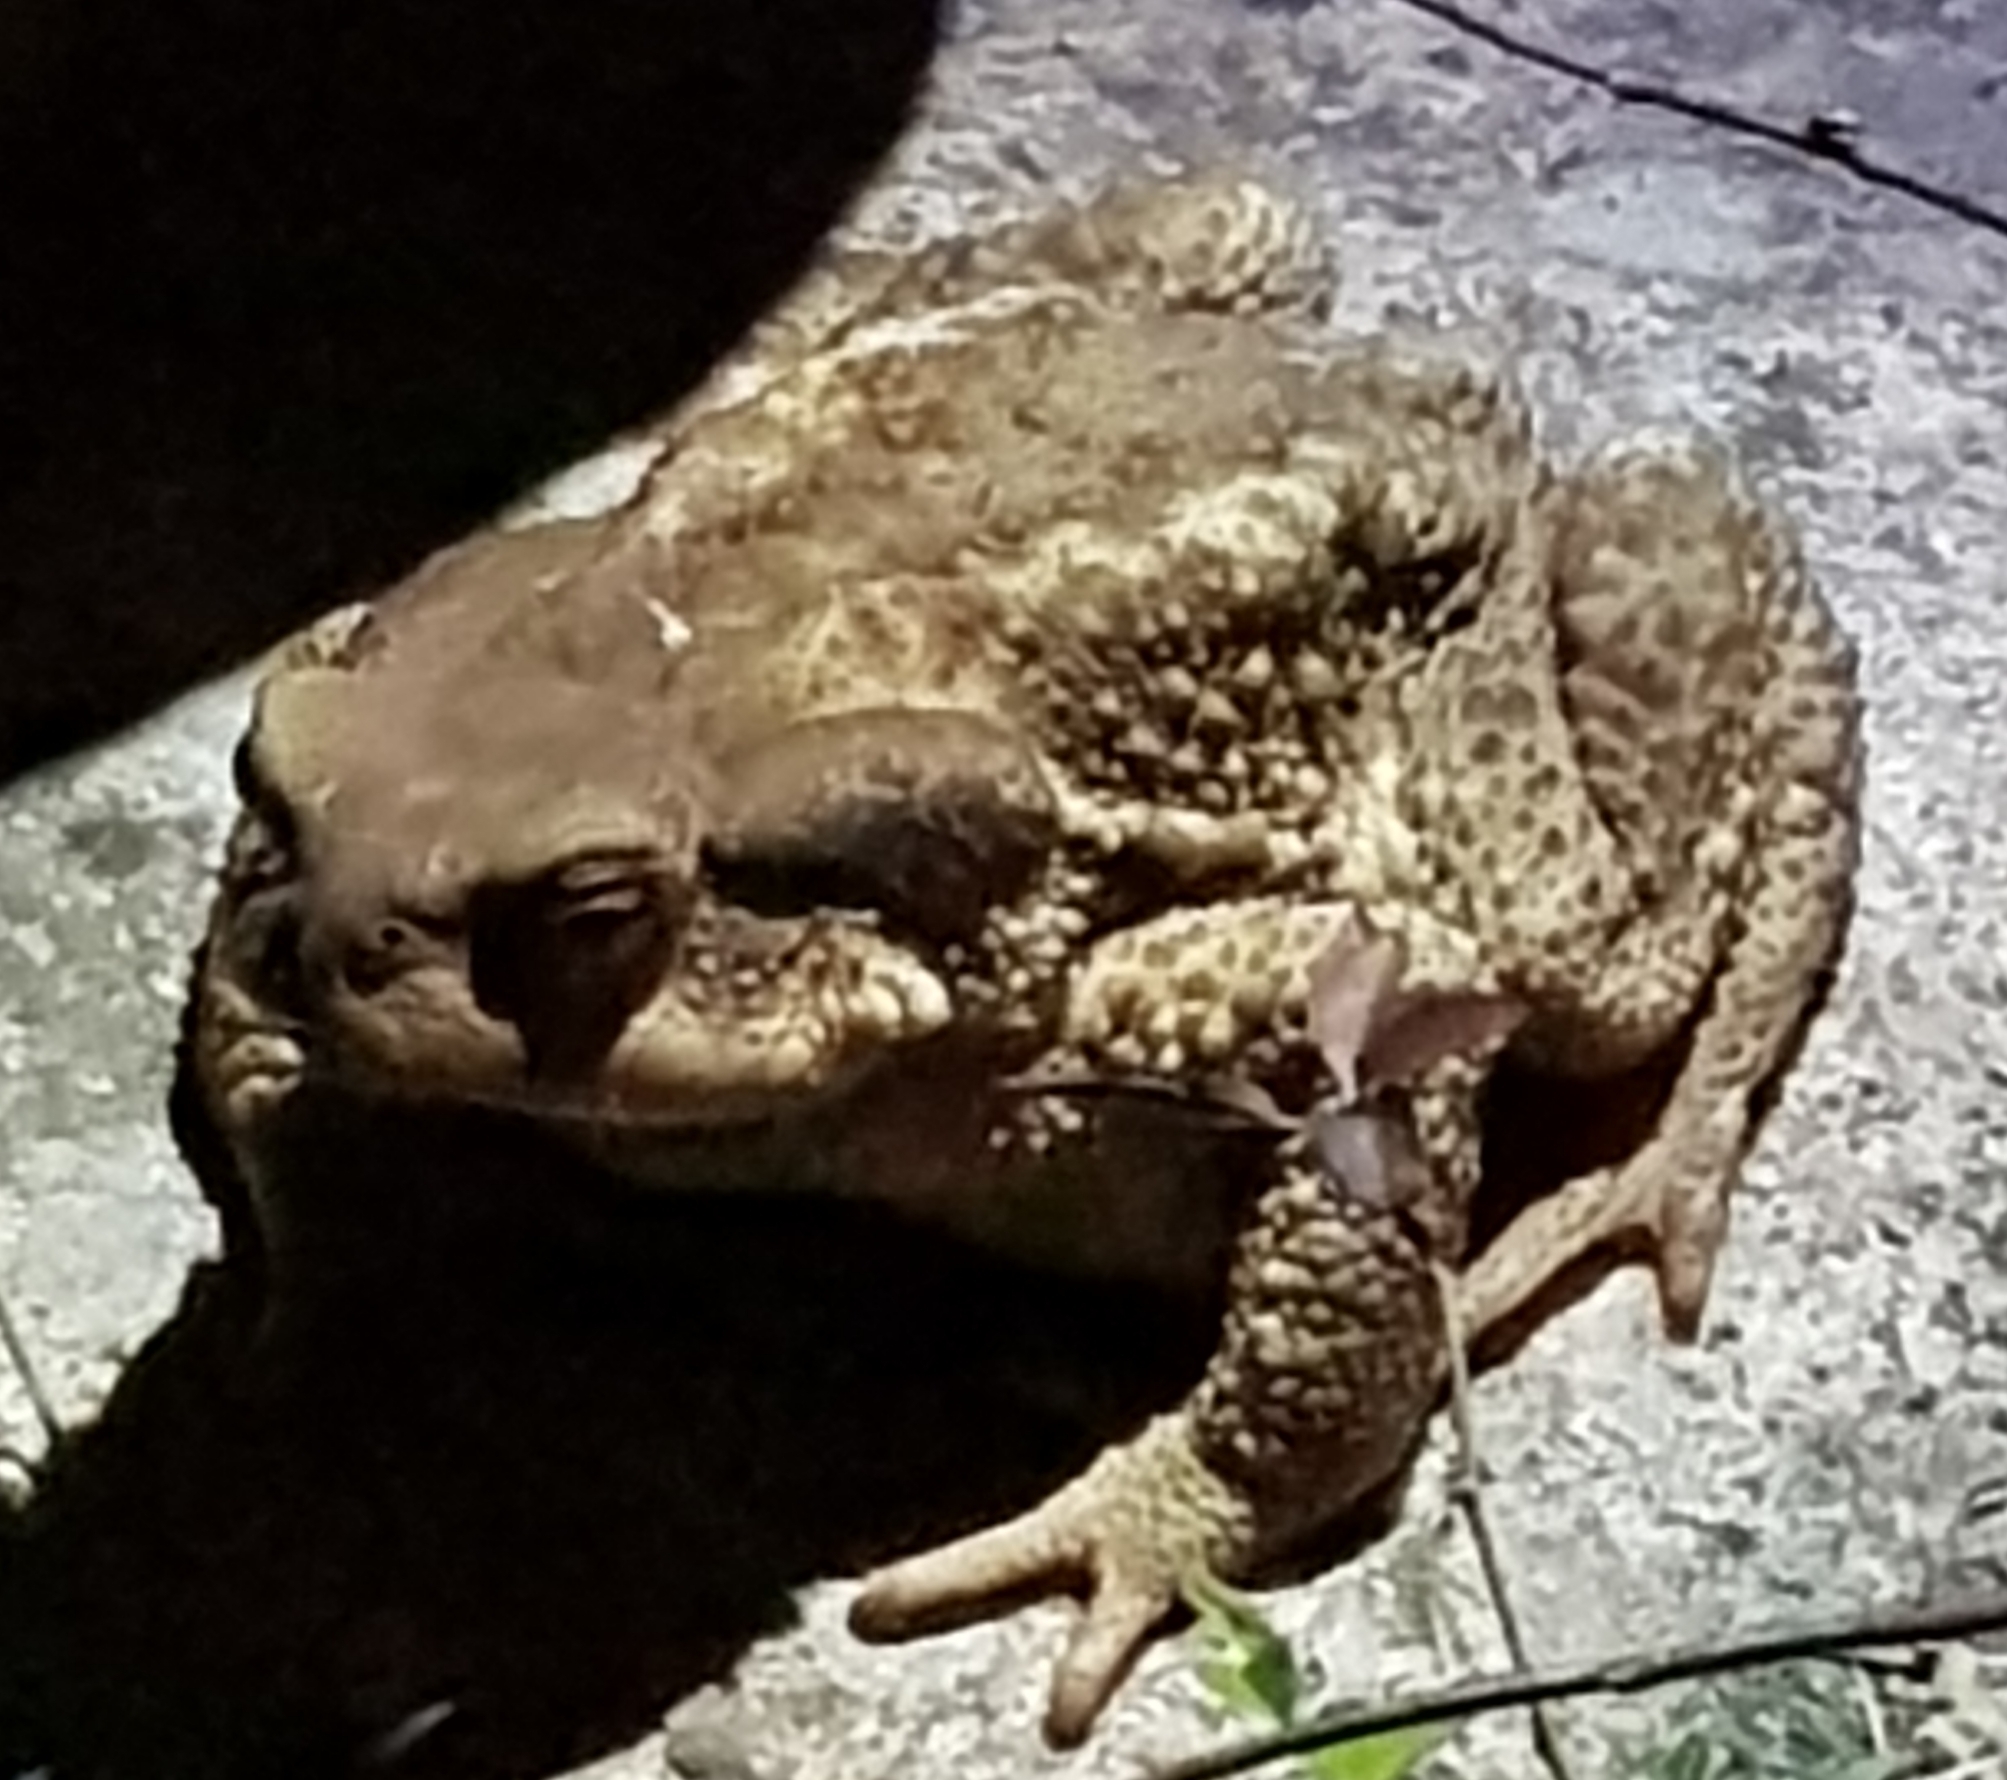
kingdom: Animalia
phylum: Chordata
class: Amphibia
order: Anura
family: Bufonidae
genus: Bufo
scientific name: Bufo spinosus
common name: Western common toad
